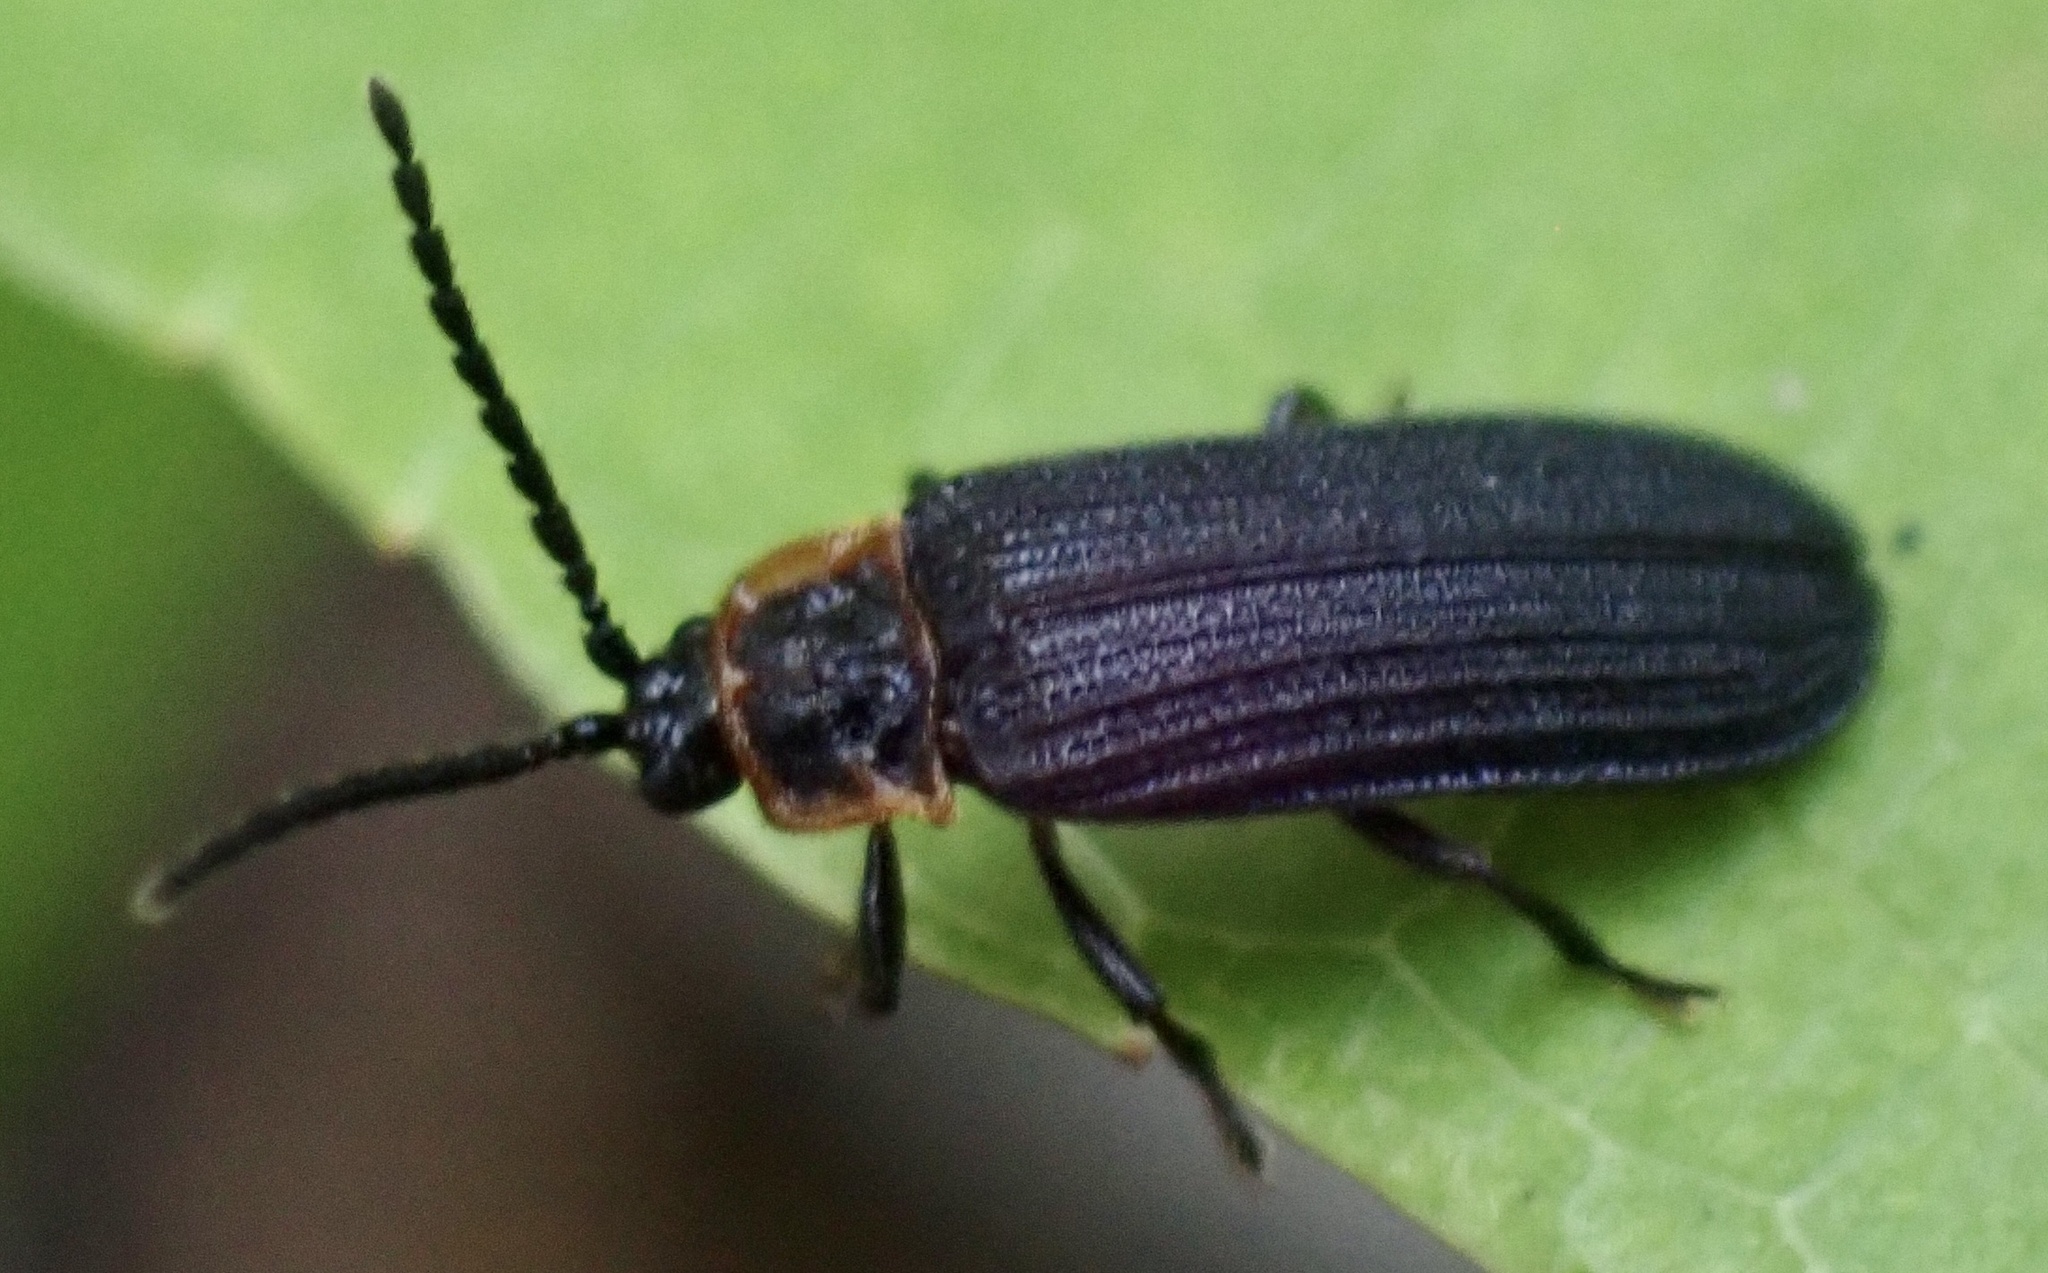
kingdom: Animalia
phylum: Arthropoda
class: Insecta
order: Coleoptera
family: Lycidae
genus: Eropterus
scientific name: Eropterus trilineatus
